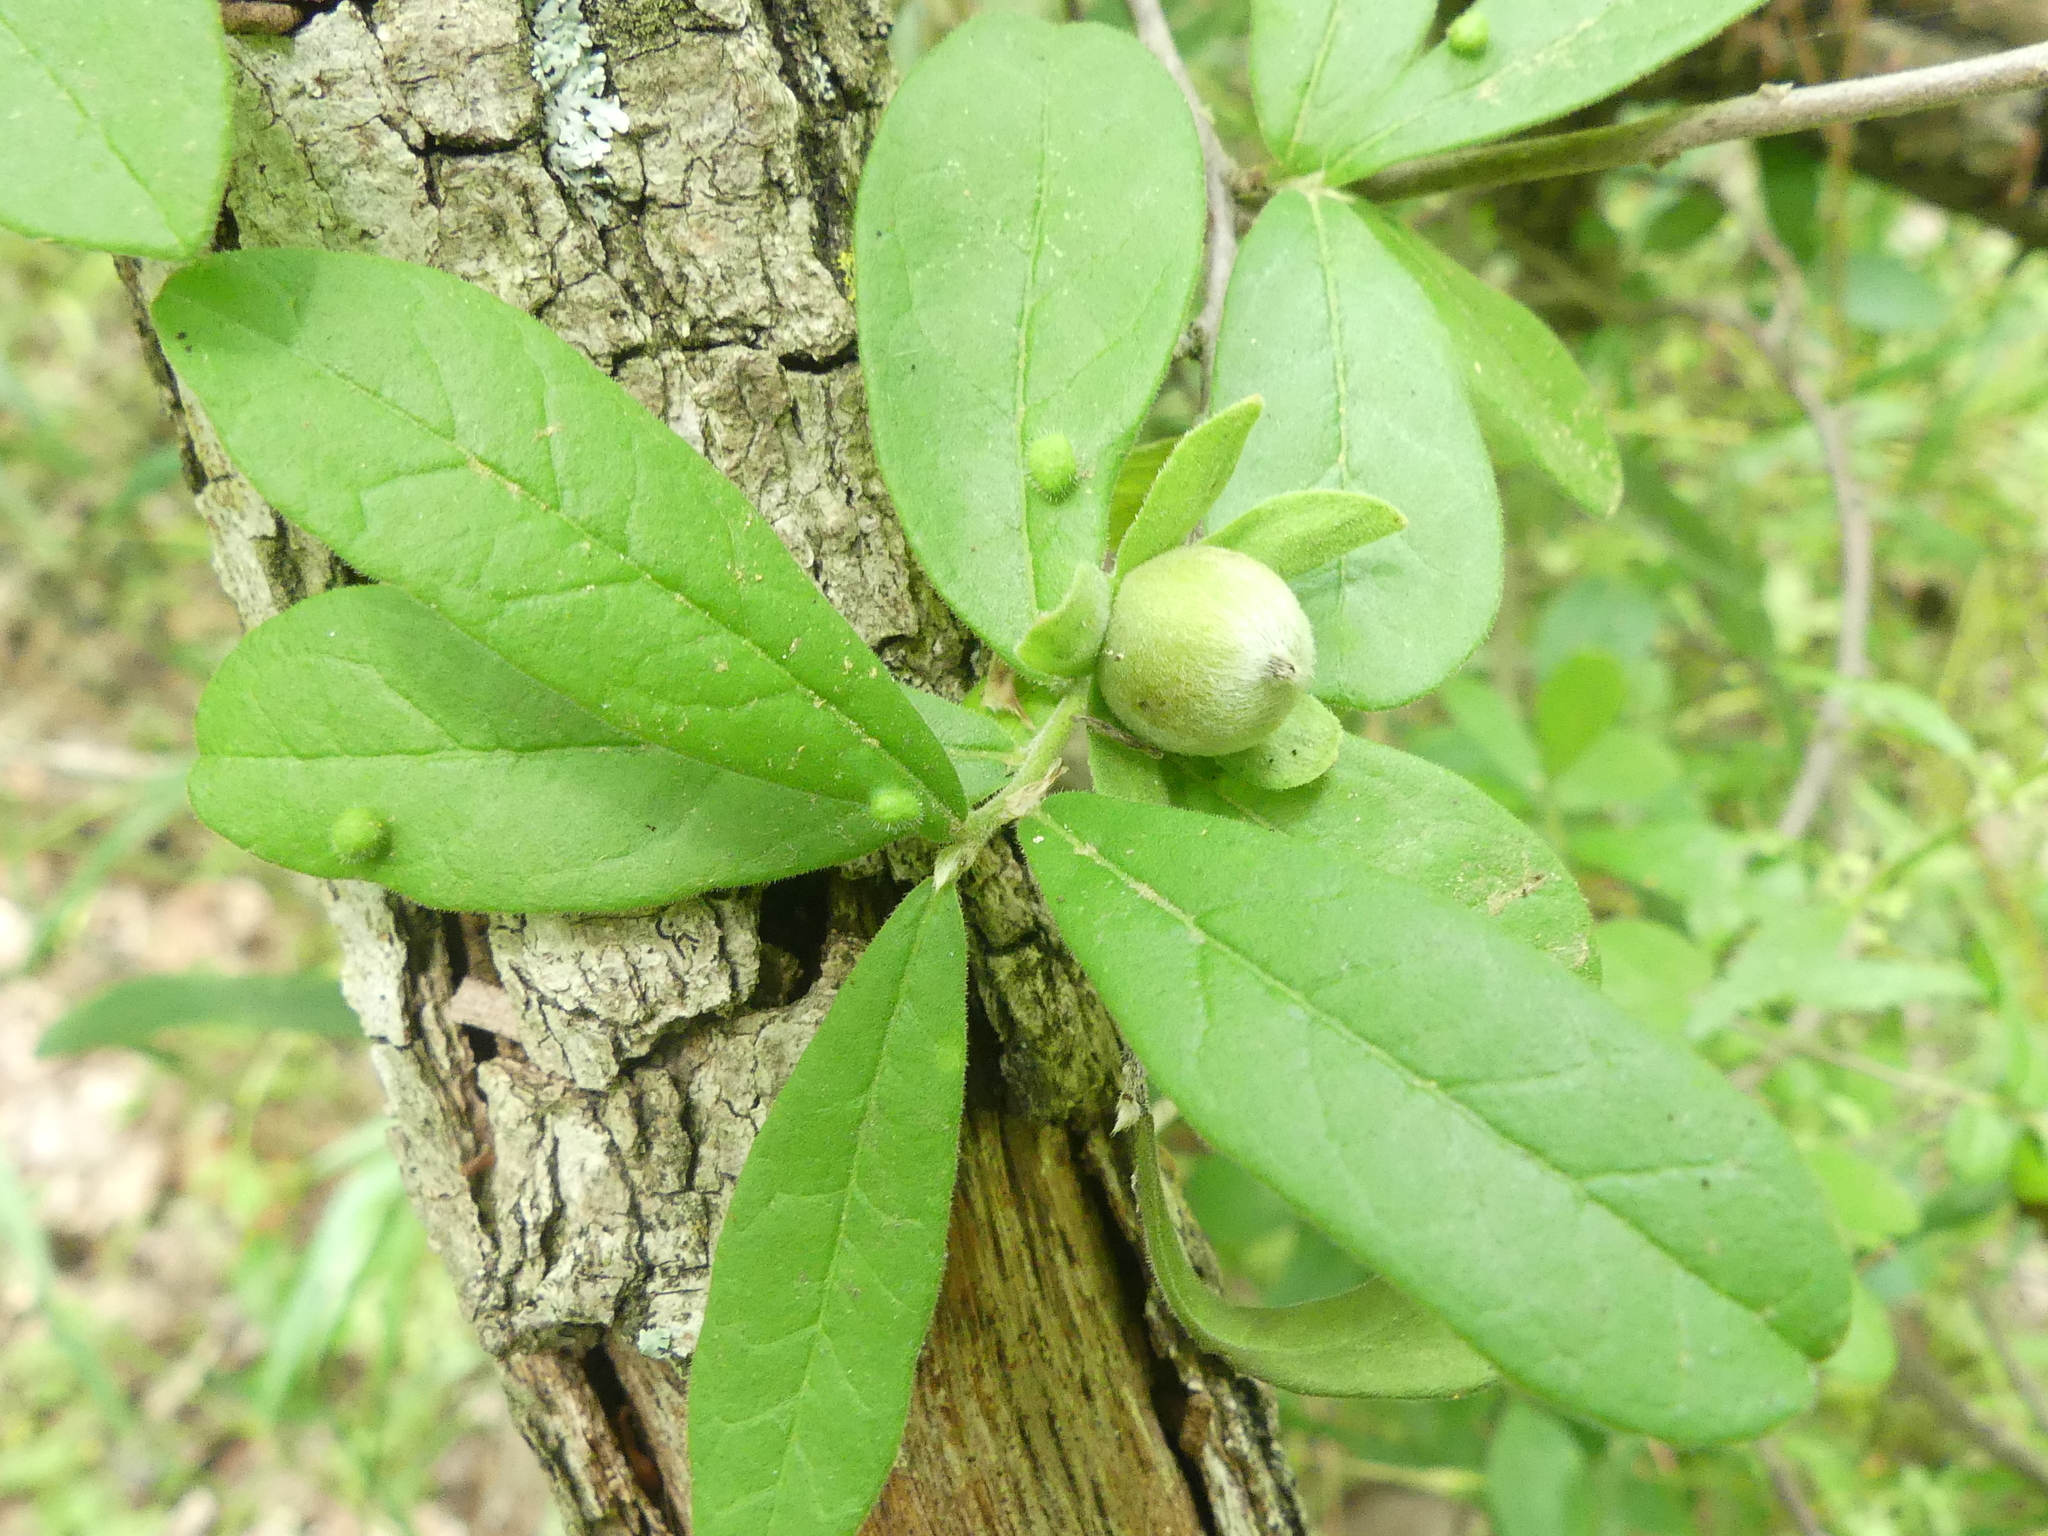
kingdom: Plantae
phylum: Tracheophyta
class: Magnoliopsida
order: Ericales
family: Ebenaceae
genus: Diospyros
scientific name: Diospyros texana
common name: Texas persimmon
